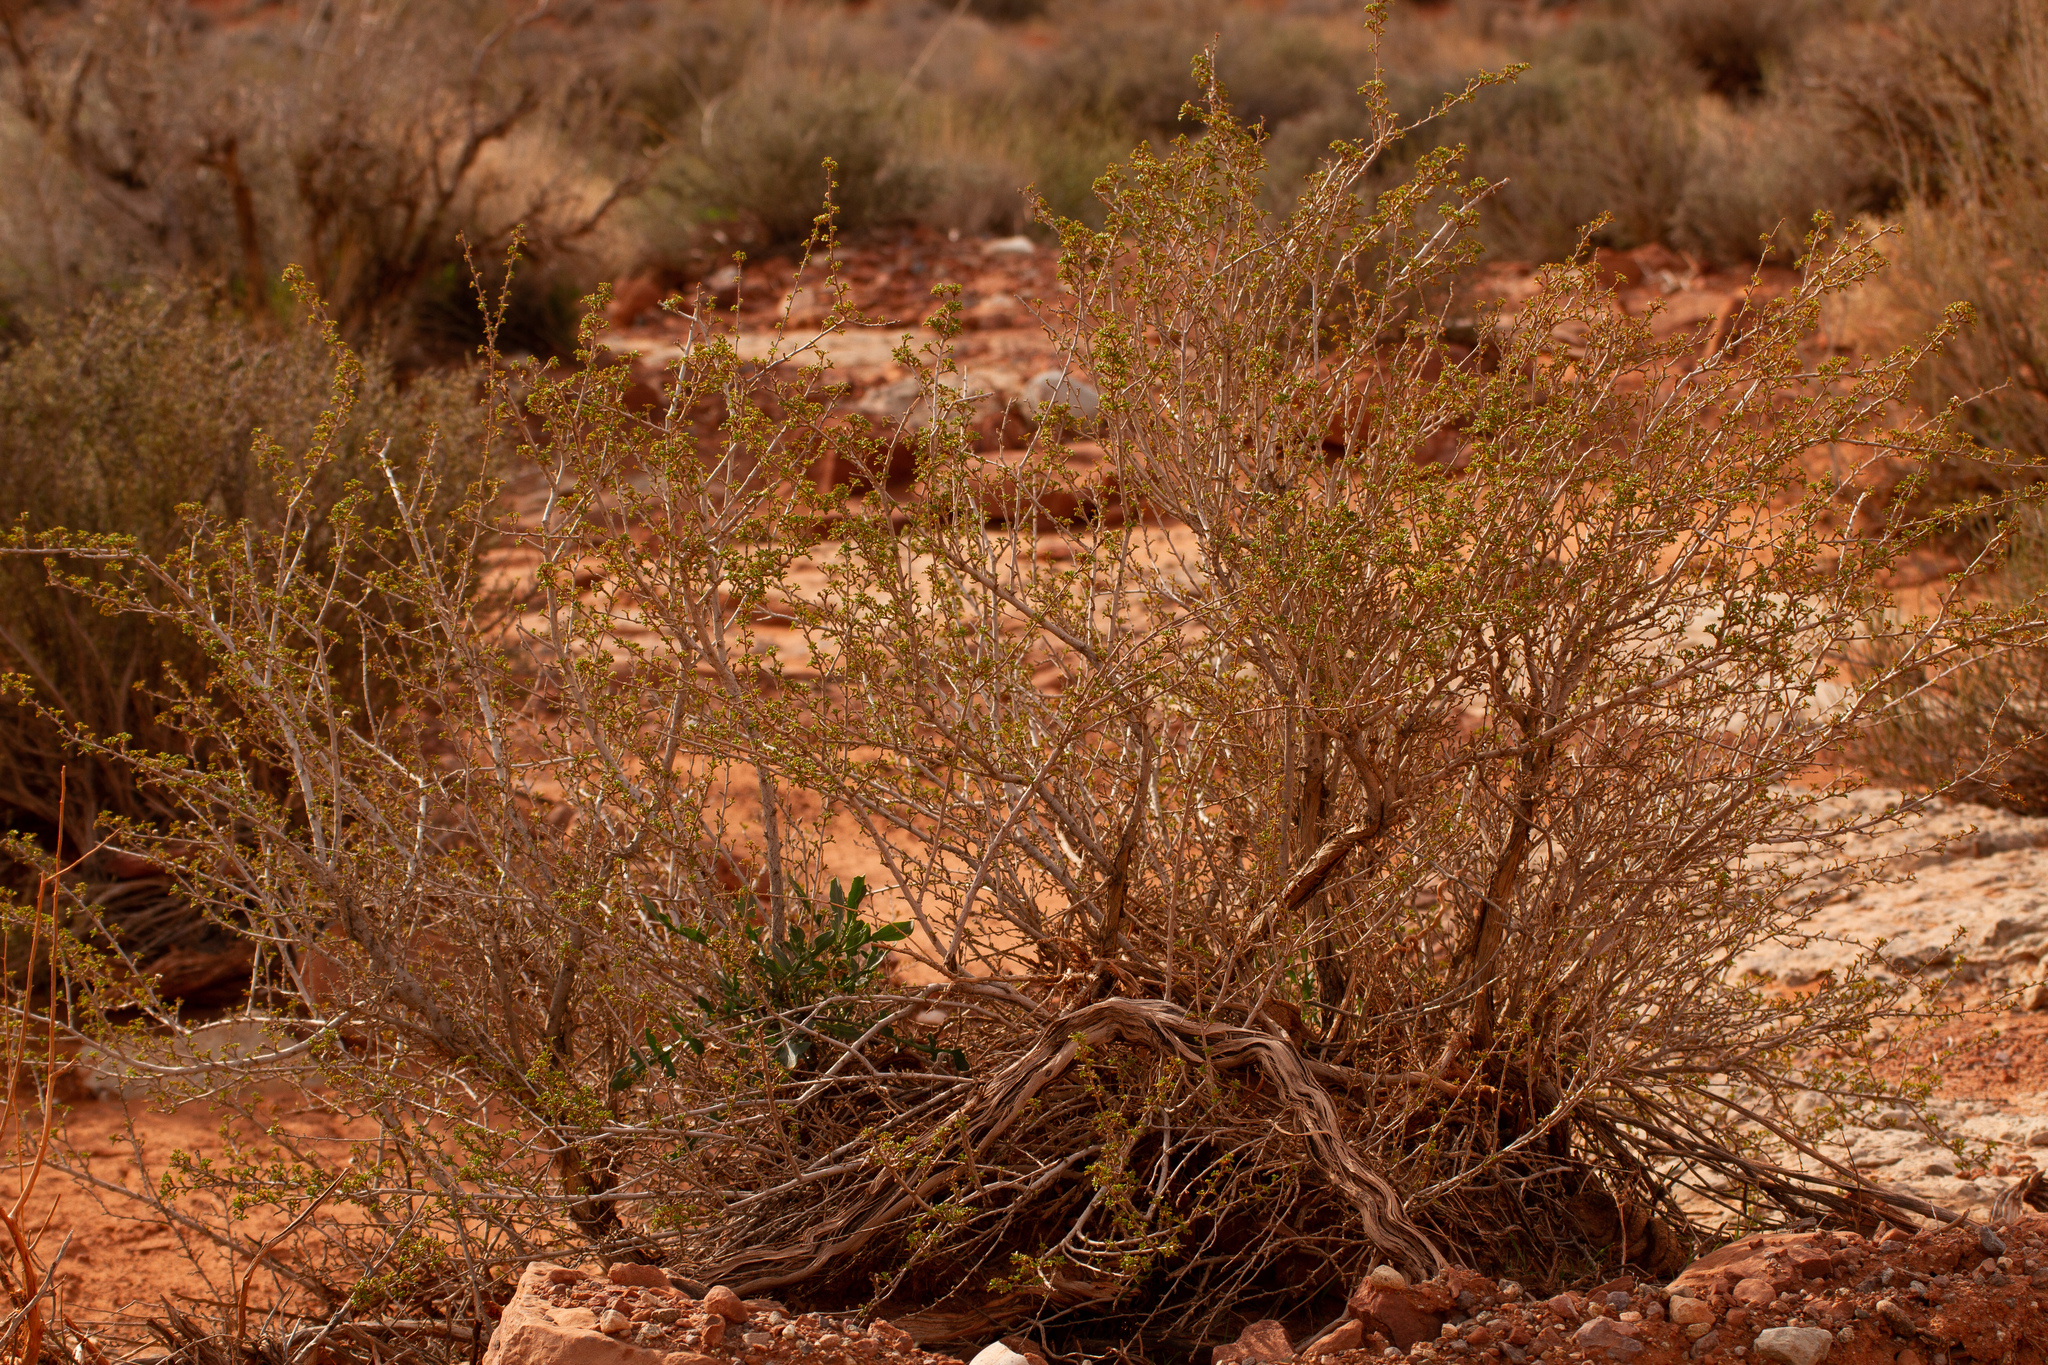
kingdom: Plantae
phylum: Tracheophyta
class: Magnoliopsida
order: Rosales
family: Rosaceae
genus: Purshia
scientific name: Purshia stansburiana
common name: Stansbury's cliffrose
